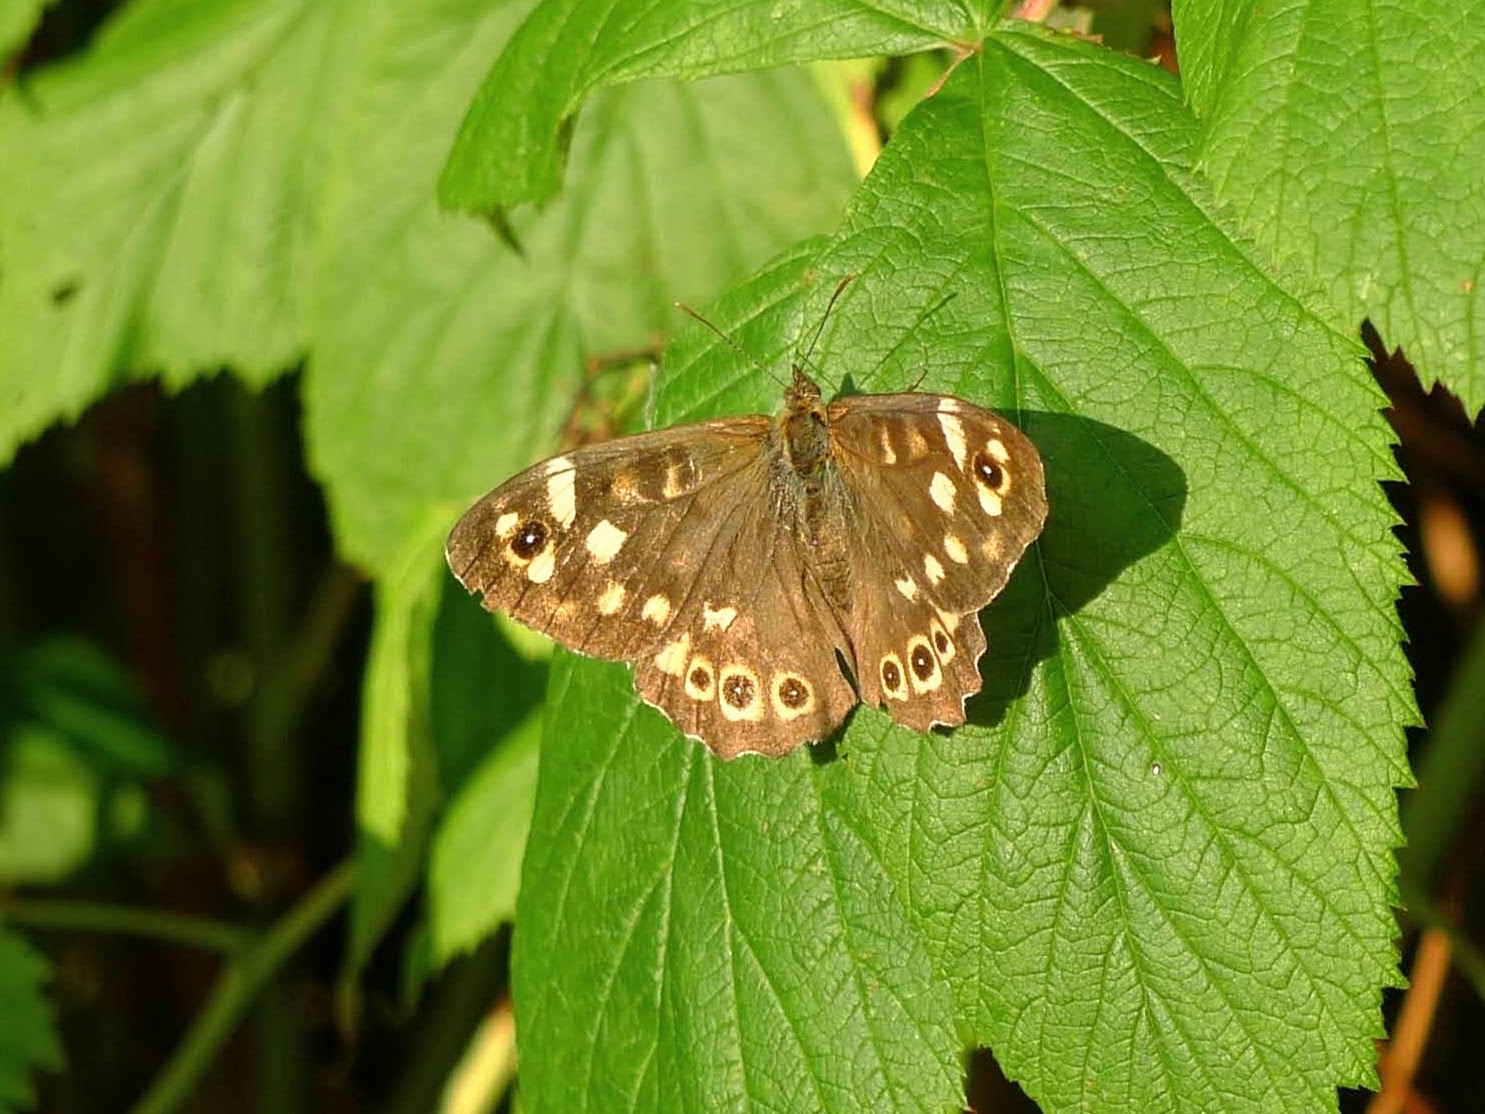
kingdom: Animalia
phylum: Arthropoda
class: Insecta
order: Lepidoptera
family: Nymphalidae
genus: Pararge
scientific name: Pararge aegeria
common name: Speckled wood
